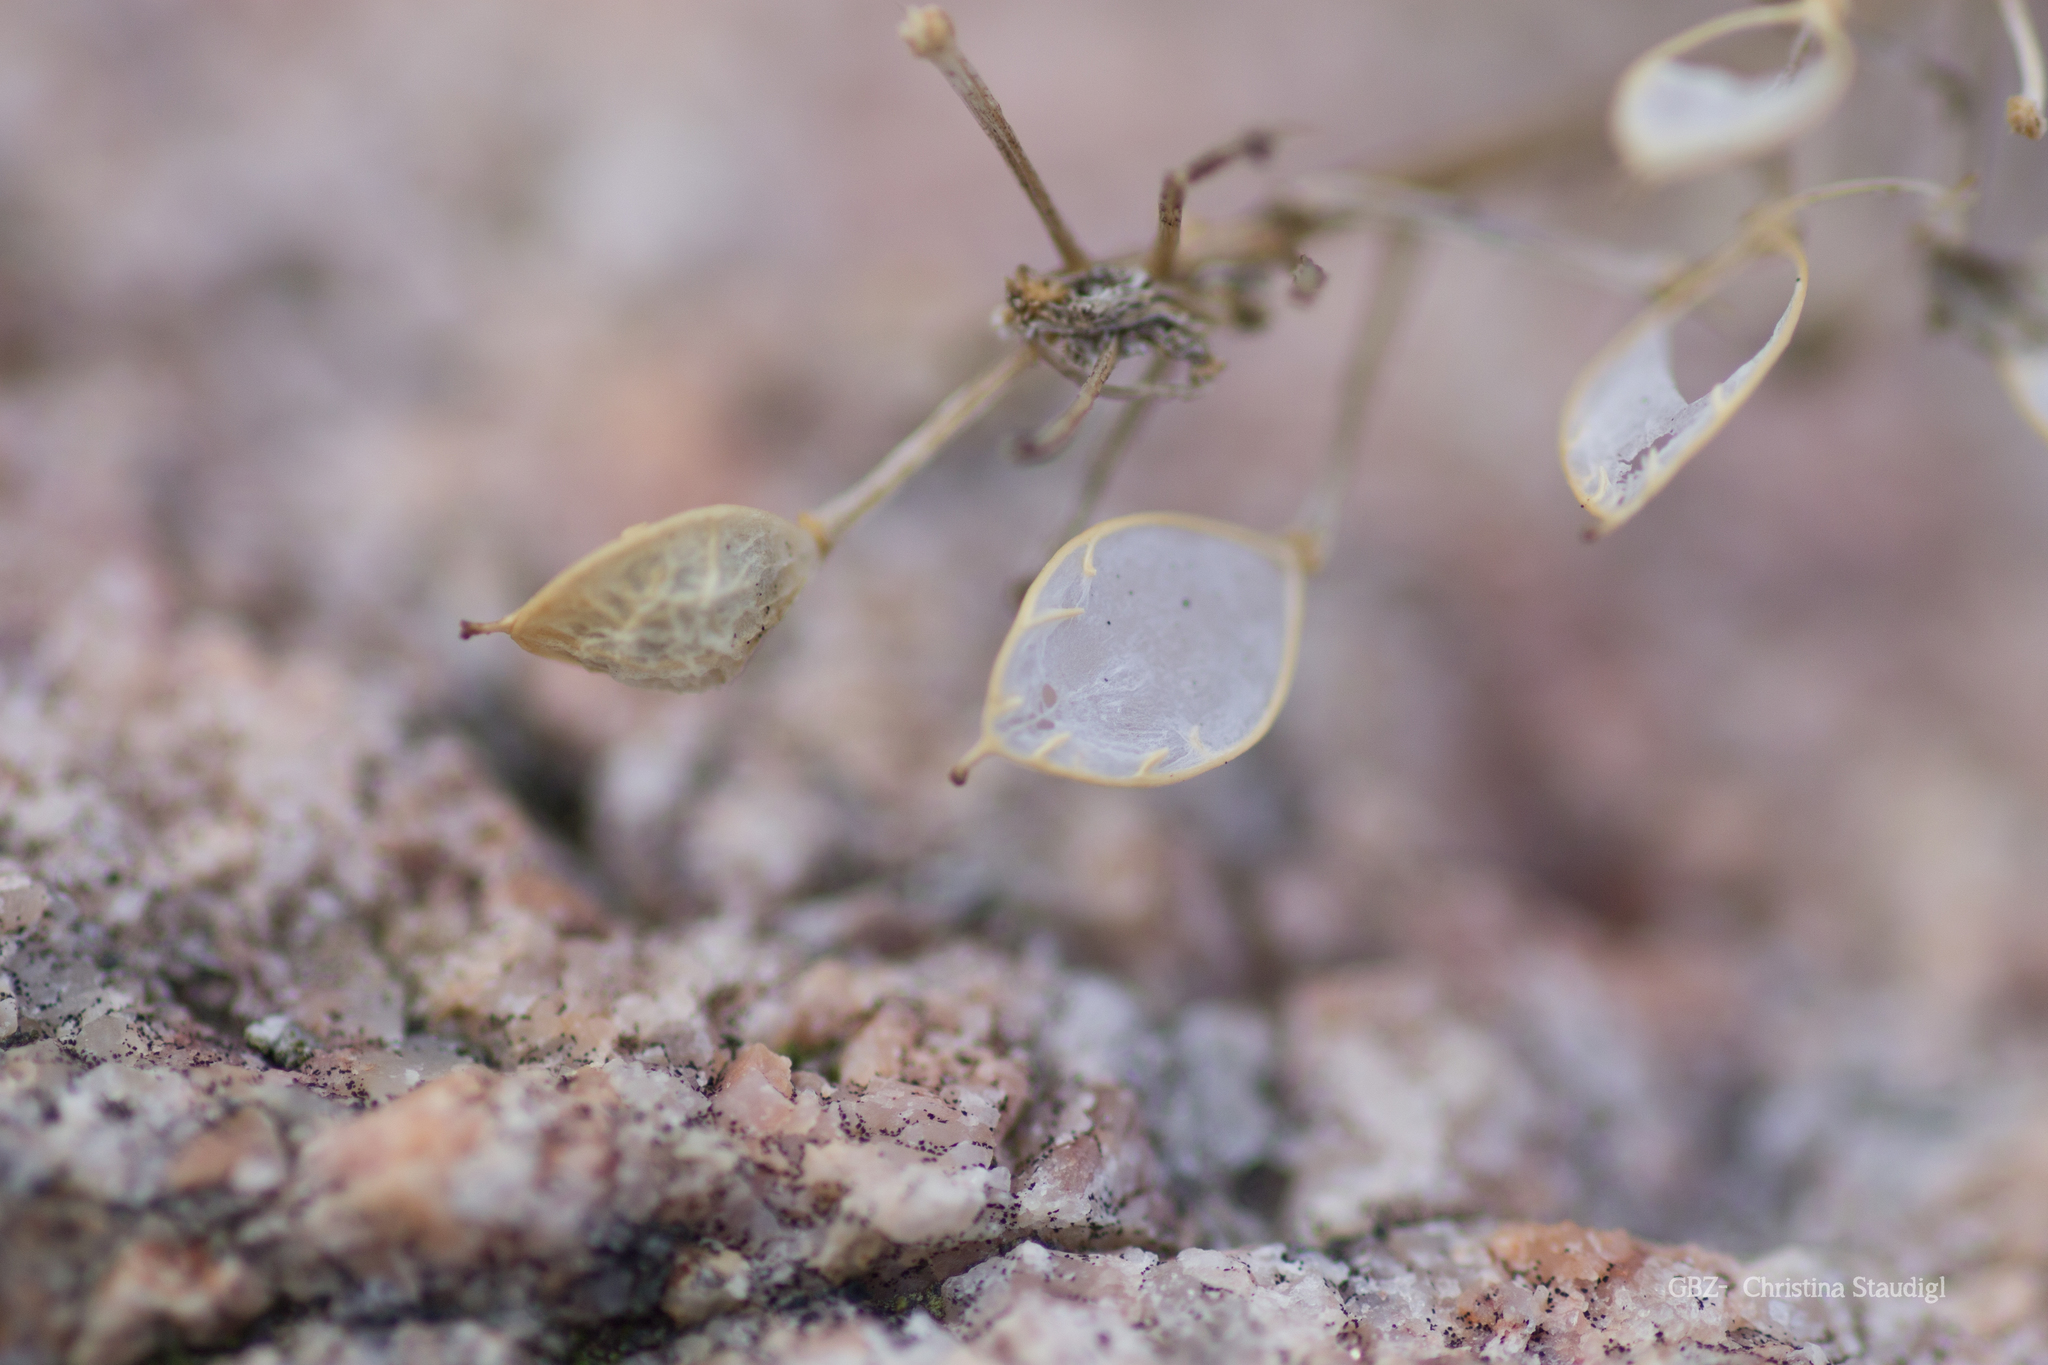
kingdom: Plantae
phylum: Tracheophyta
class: Magnoliopsida
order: Brassicales
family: Brassicaceae
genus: Cochlearia
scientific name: Cochlearia anglica
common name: English scurvygrass
